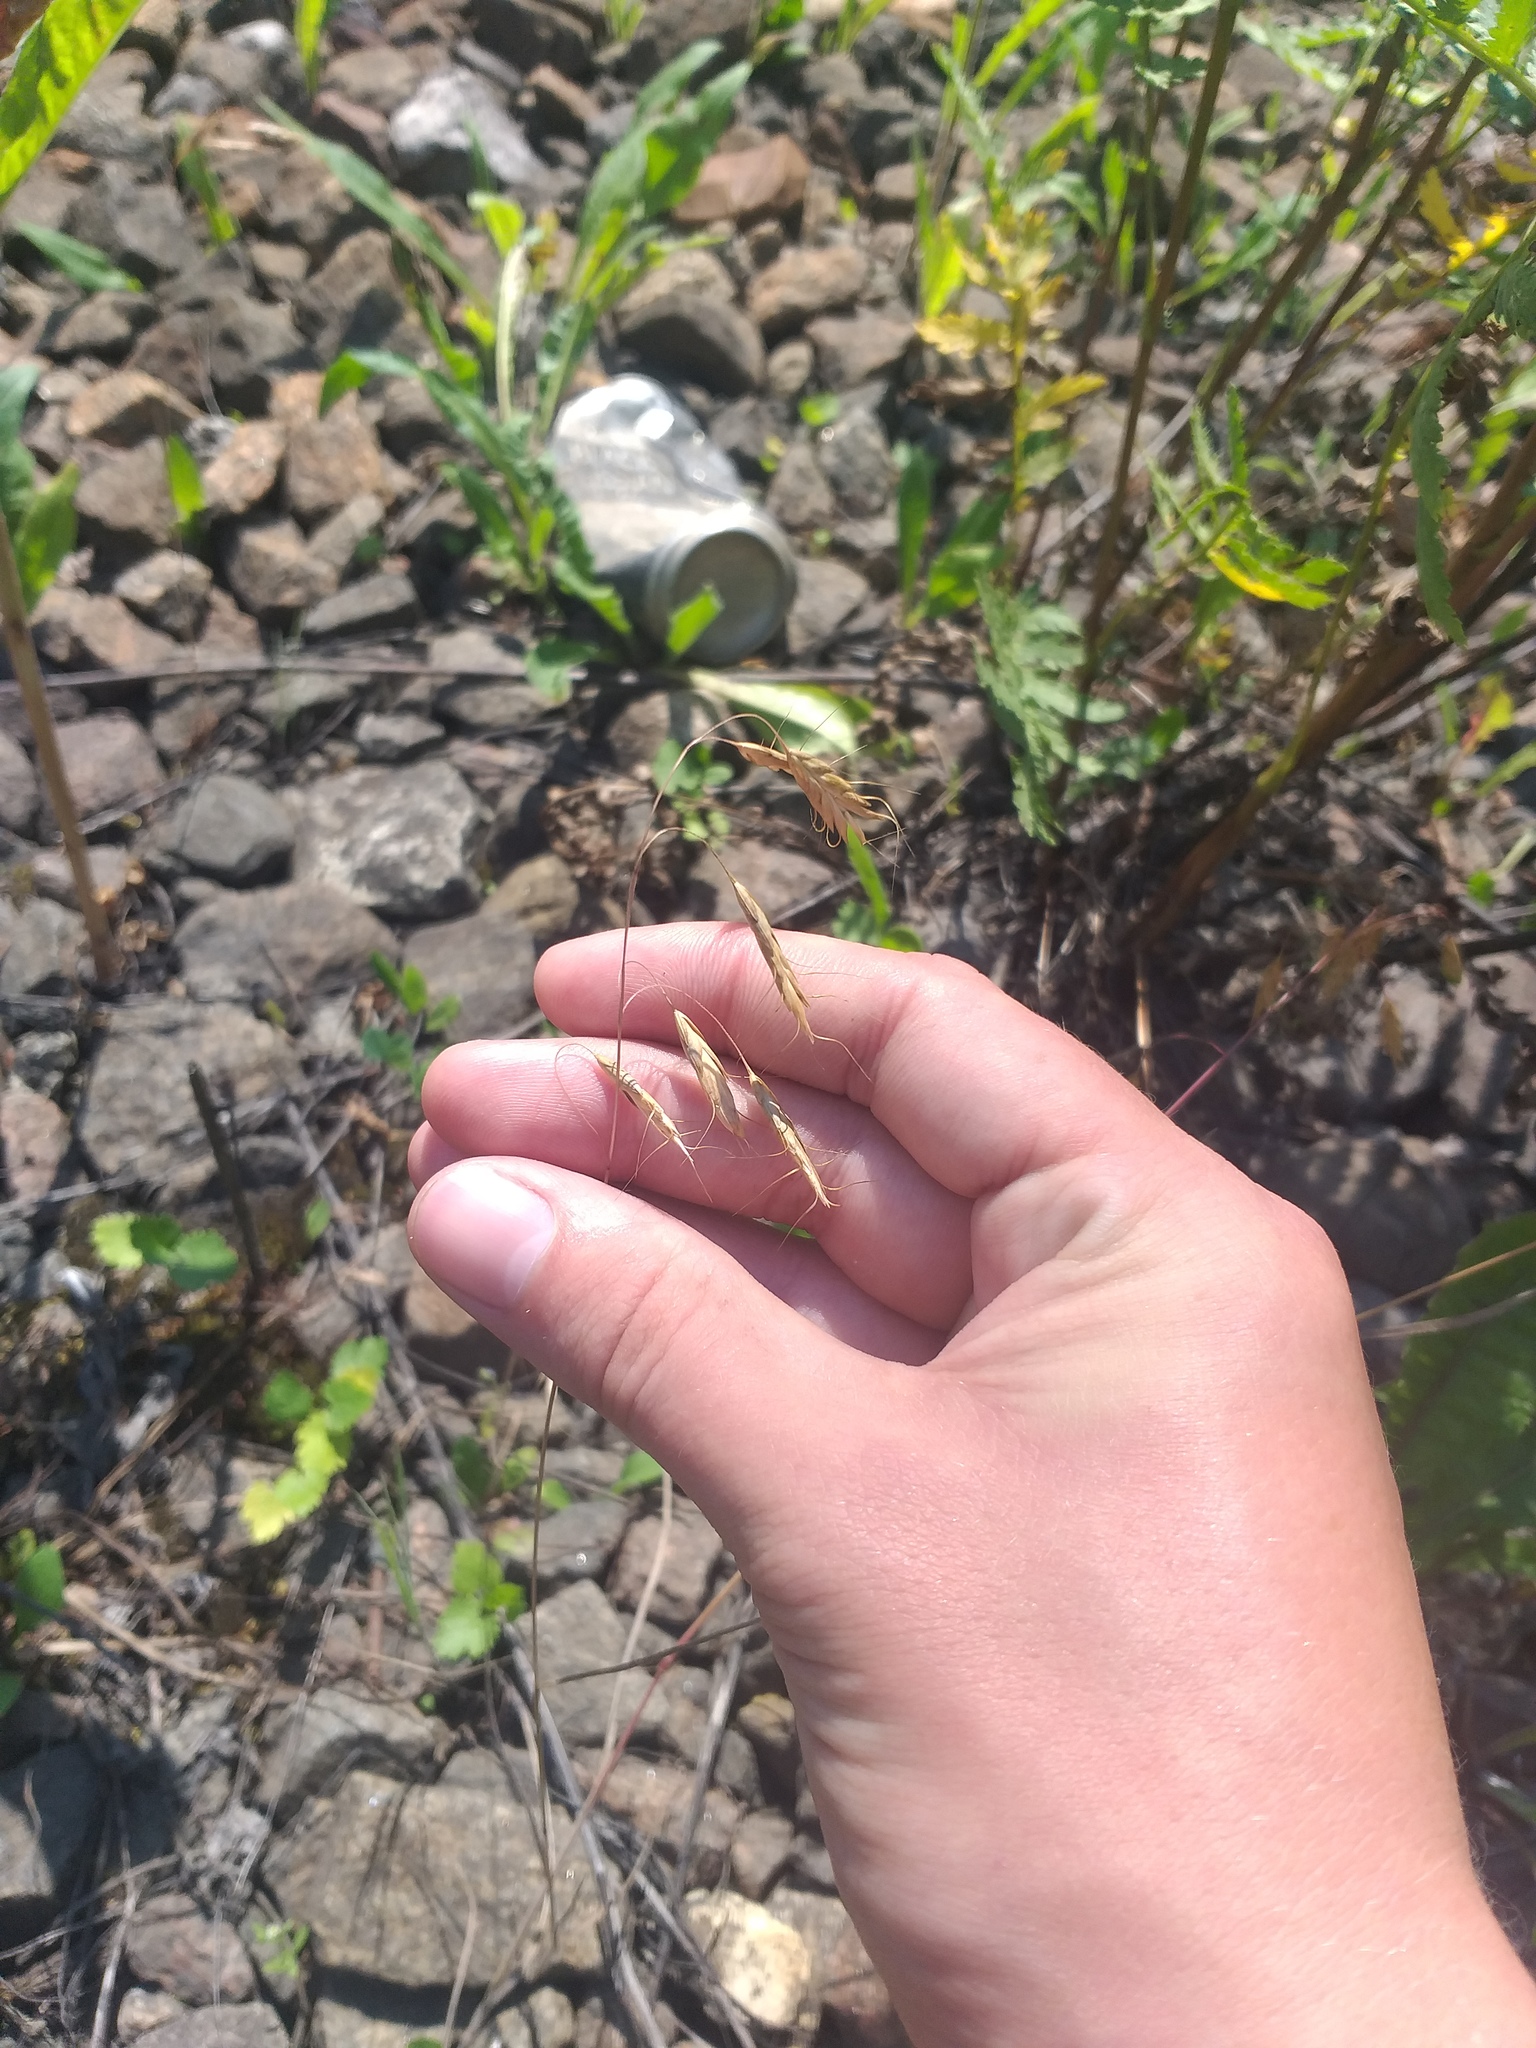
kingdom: Plantae
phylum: Tracheophyta
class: Liliopsida
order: Poales
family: Poaceae
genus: Bromus
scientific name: Bromus japonicus
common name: Japanese brome
